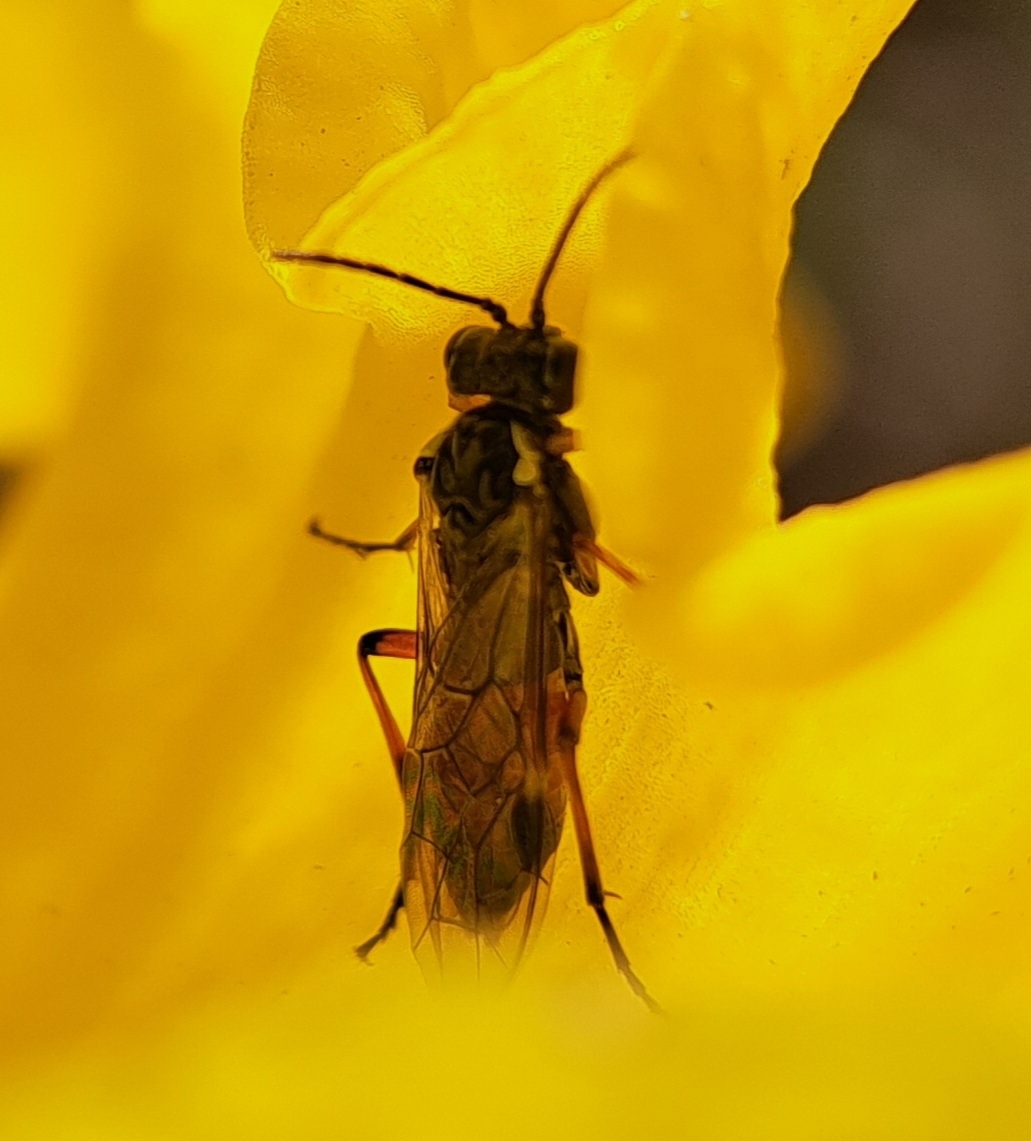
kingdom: Animalia
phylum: Arthropoda
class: Insecta
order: Hymenoptera
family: Tenthredinidae
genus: Aglaostigma
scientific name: Aglaostigma aucupariae
